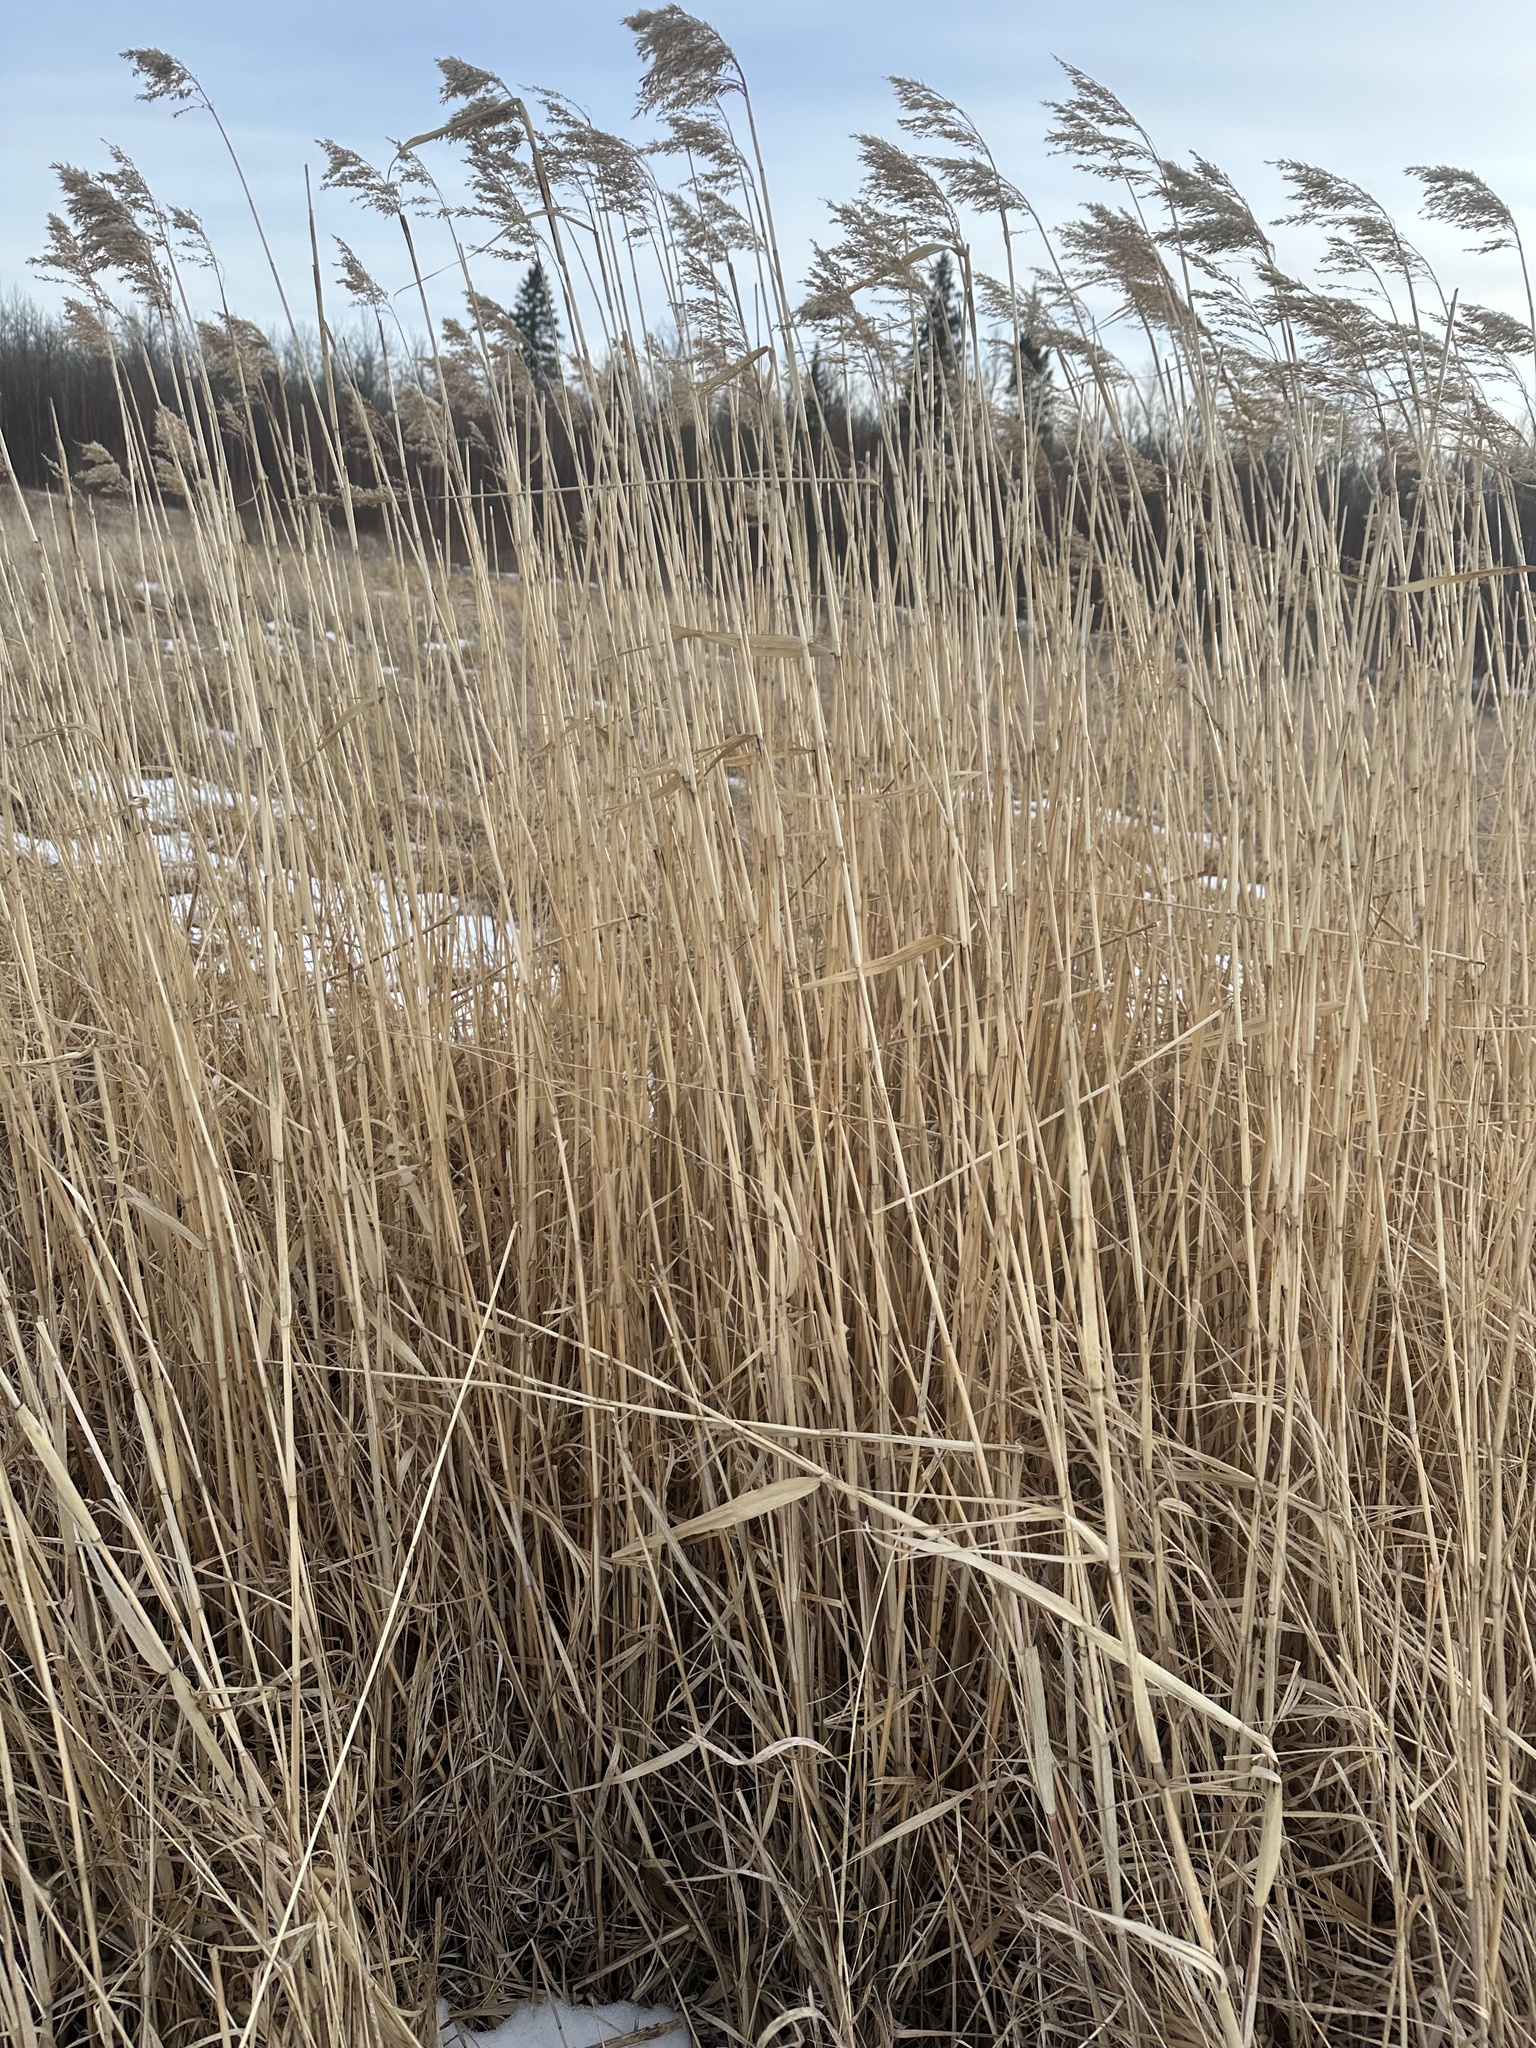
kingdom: Plantae
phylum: Tracheophyta
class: Liliopsida
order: Poales
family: Poaceae
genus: Phragmites
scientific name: Phragmites australis
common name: Common reed
